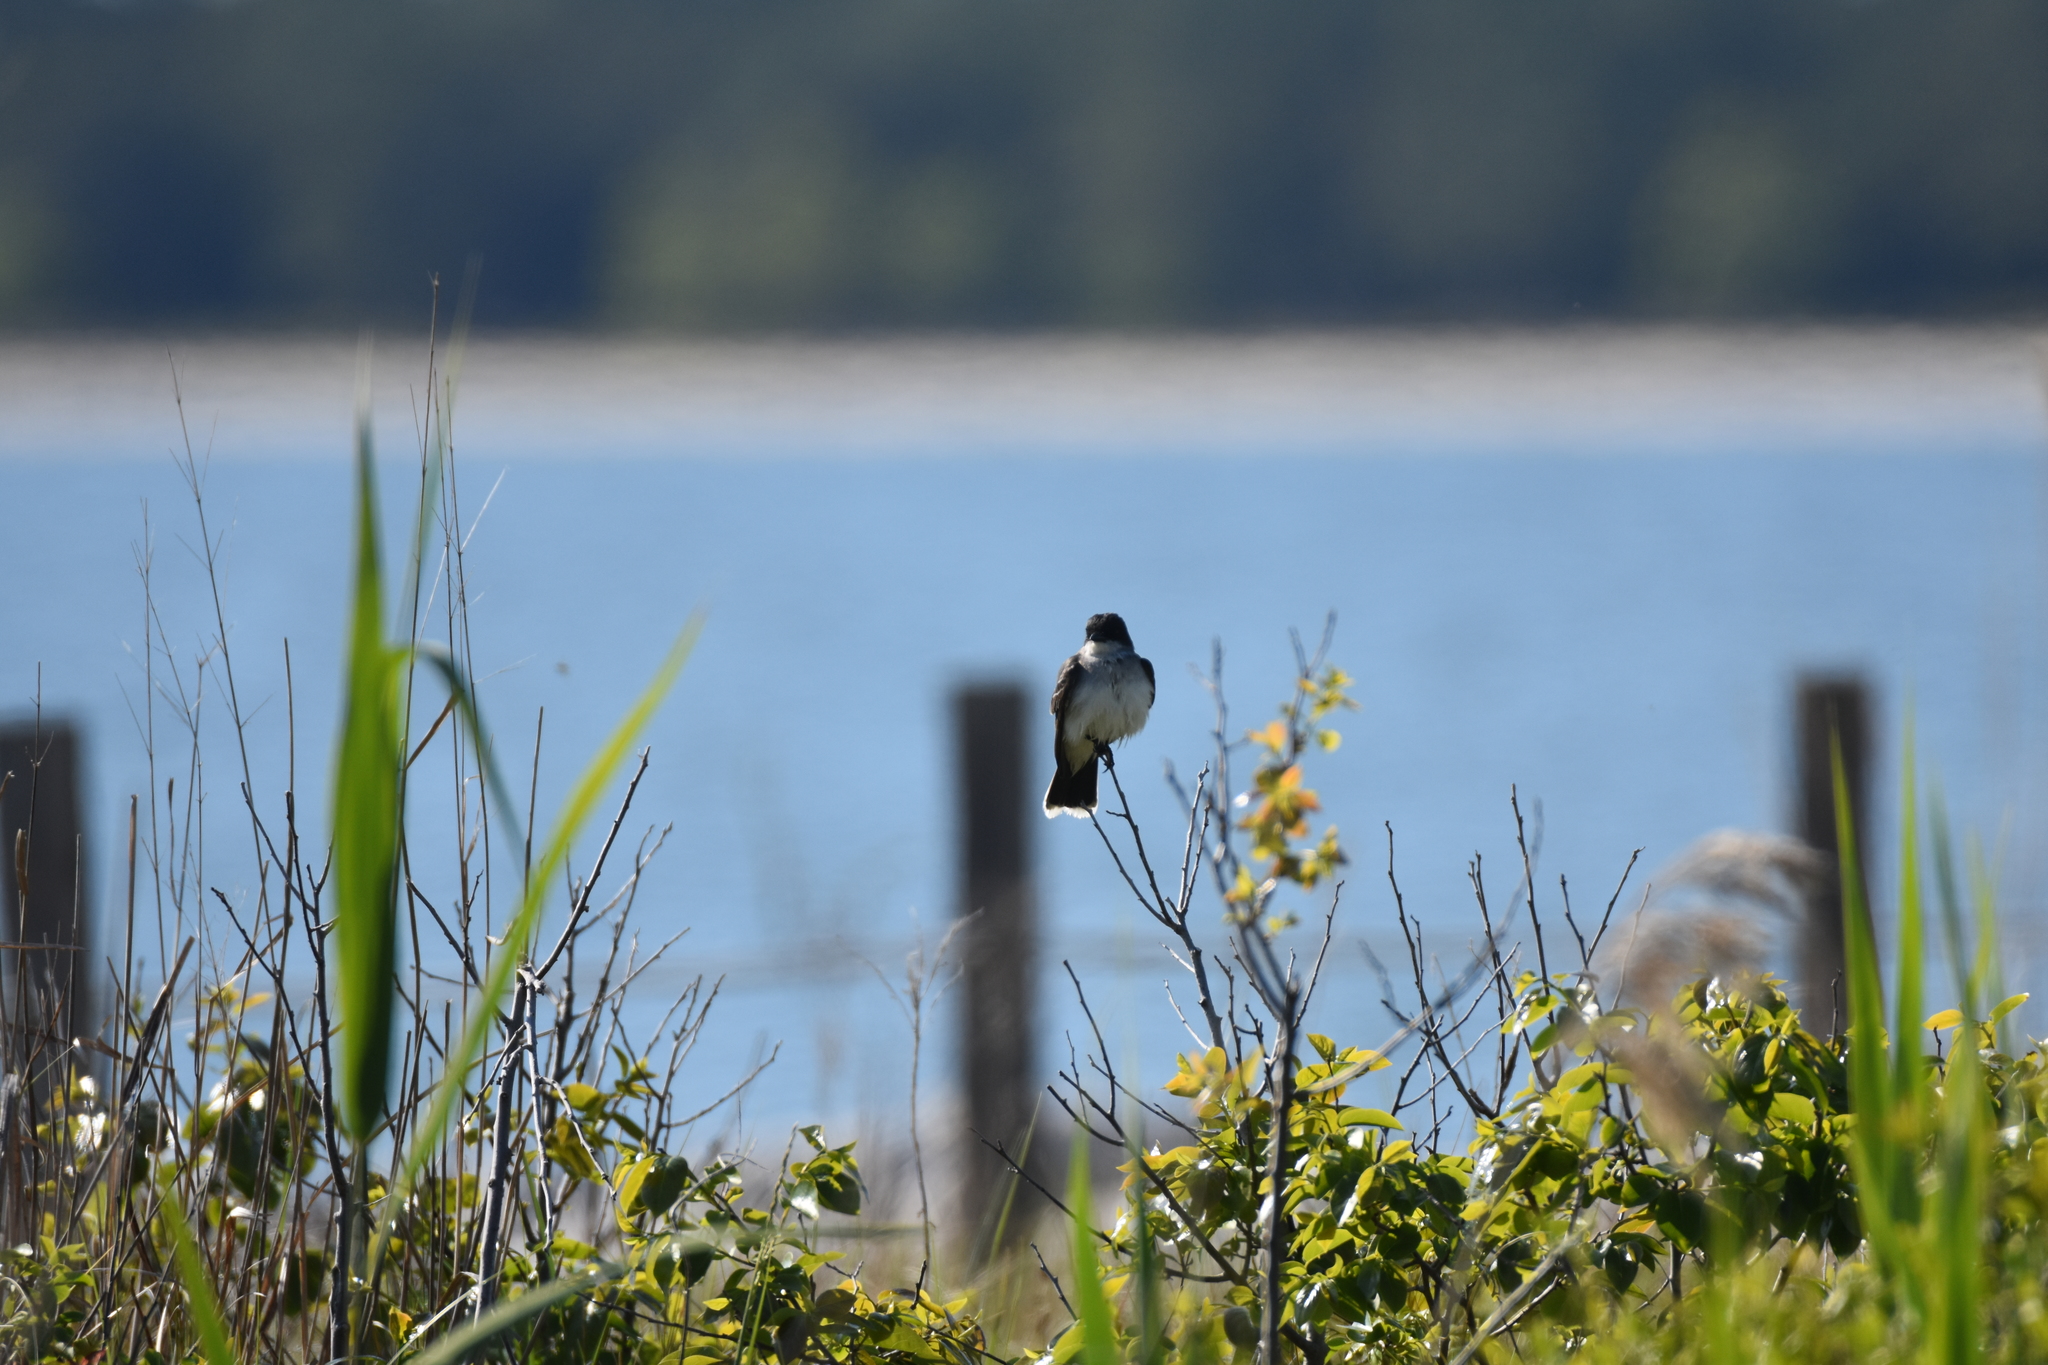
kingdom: Animalia
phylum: Chordata
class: Aves
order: Passeriformes
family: Tyrannidae
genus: Tyrannus
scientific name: Tyrannus tyrannus
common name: Eastern kingbird
